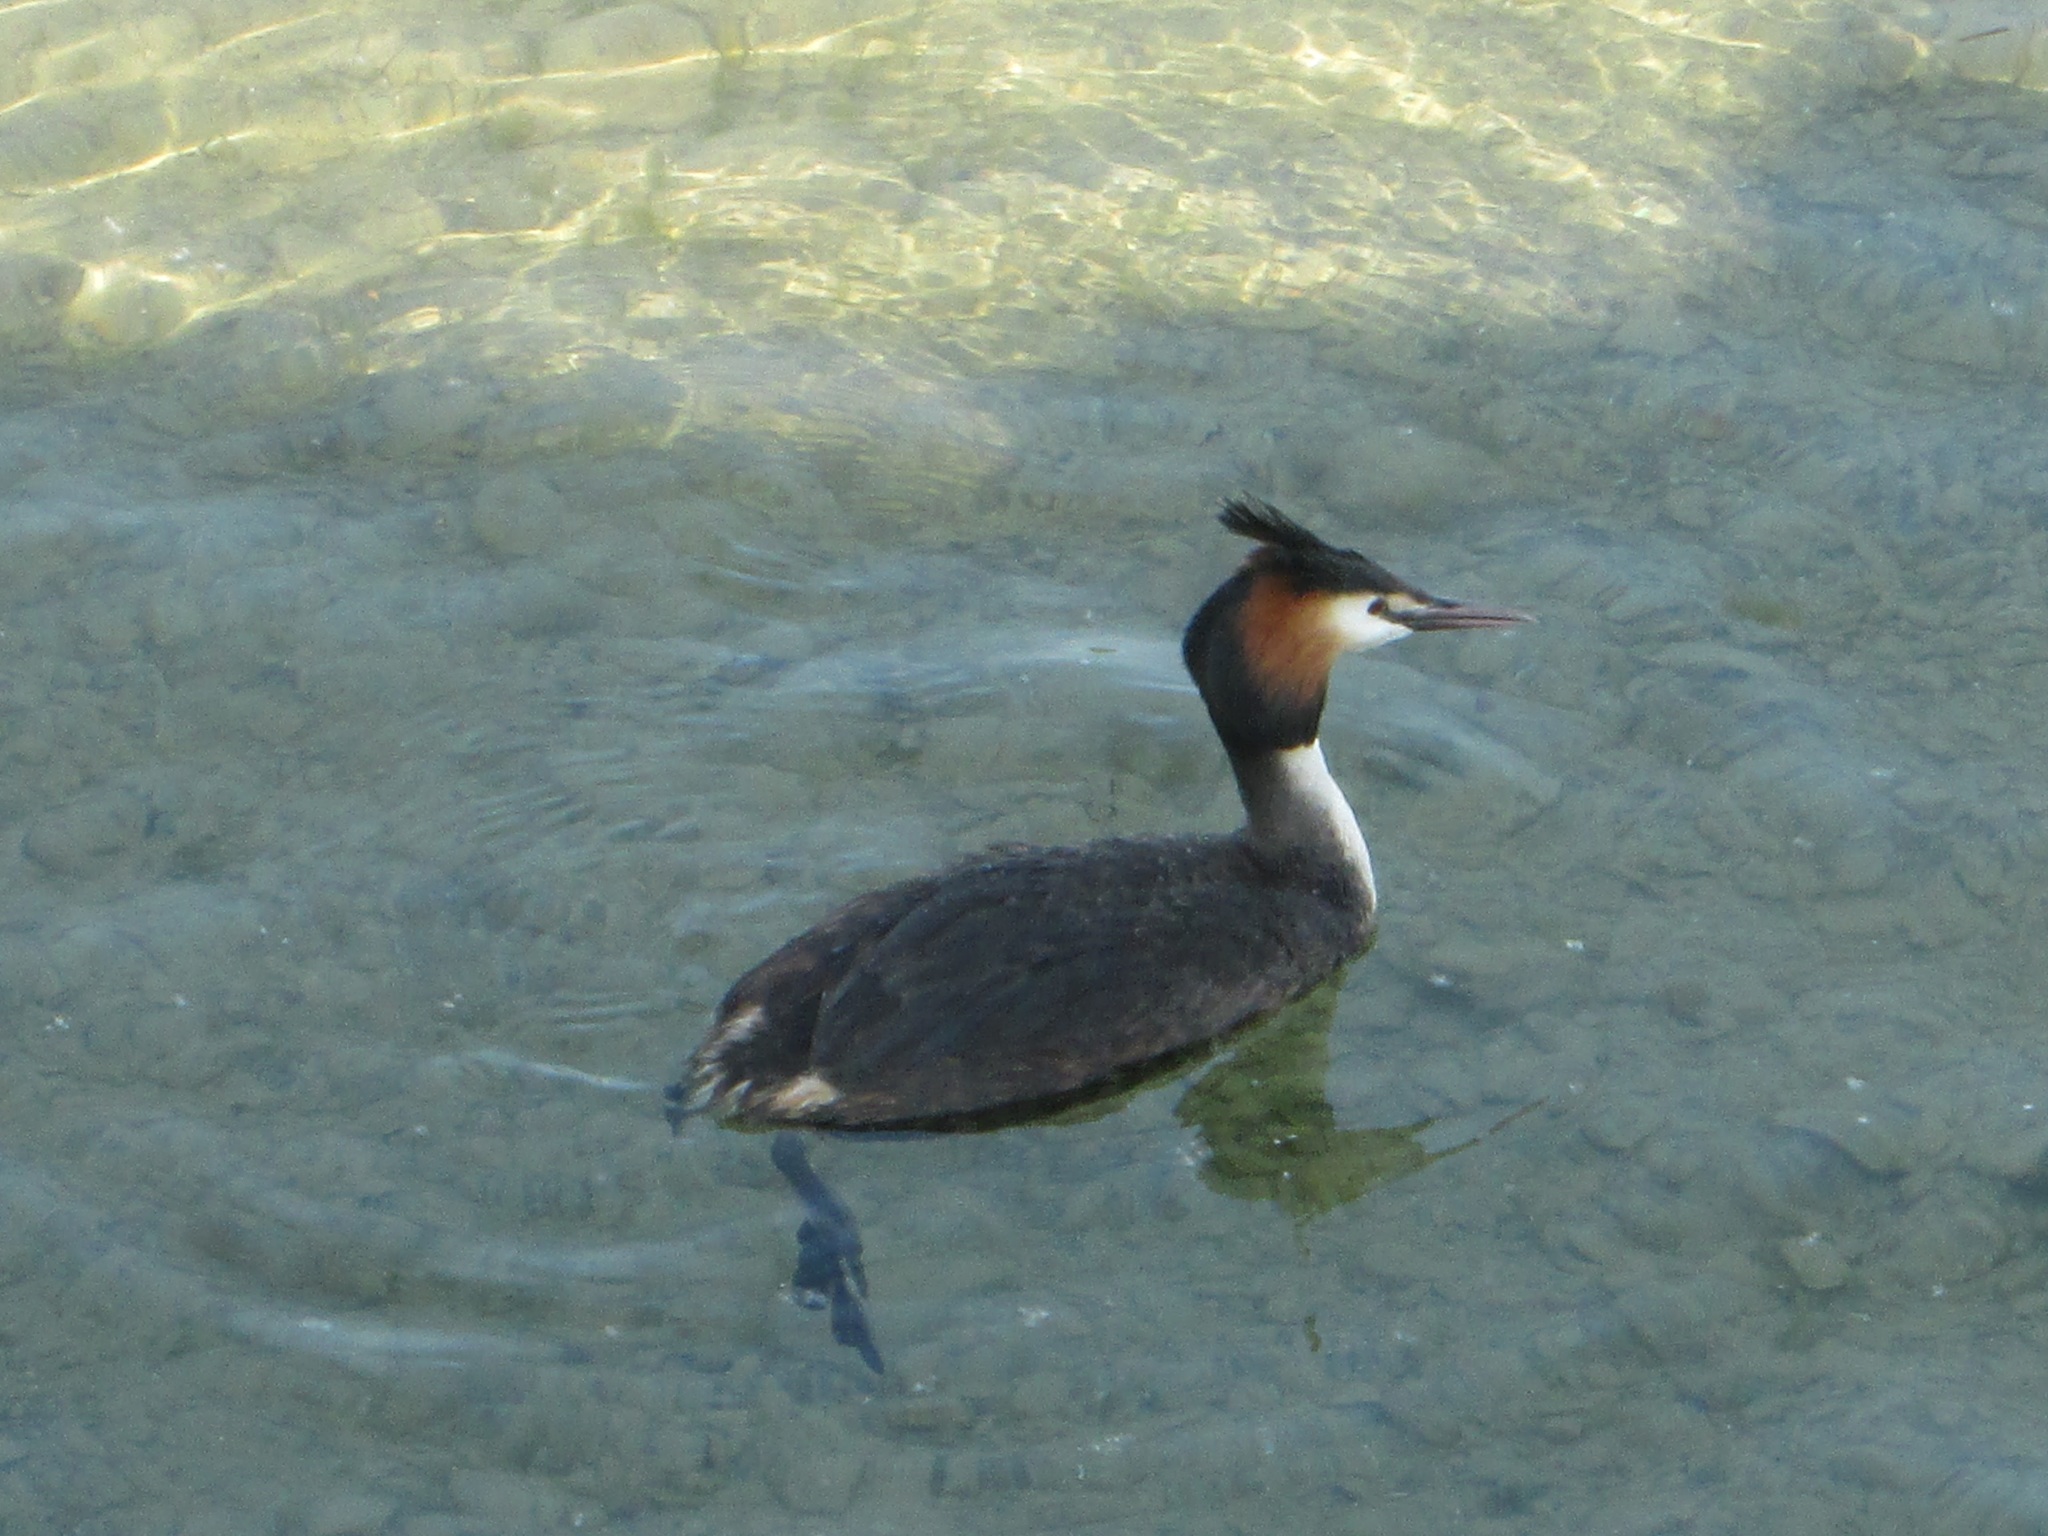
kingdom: Animalia
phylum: Chordata
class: Aves
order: Podicipediformes
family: Podicipedidae
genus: Podiceps
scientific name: Podiceps cristatus
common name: Great crested grebe
